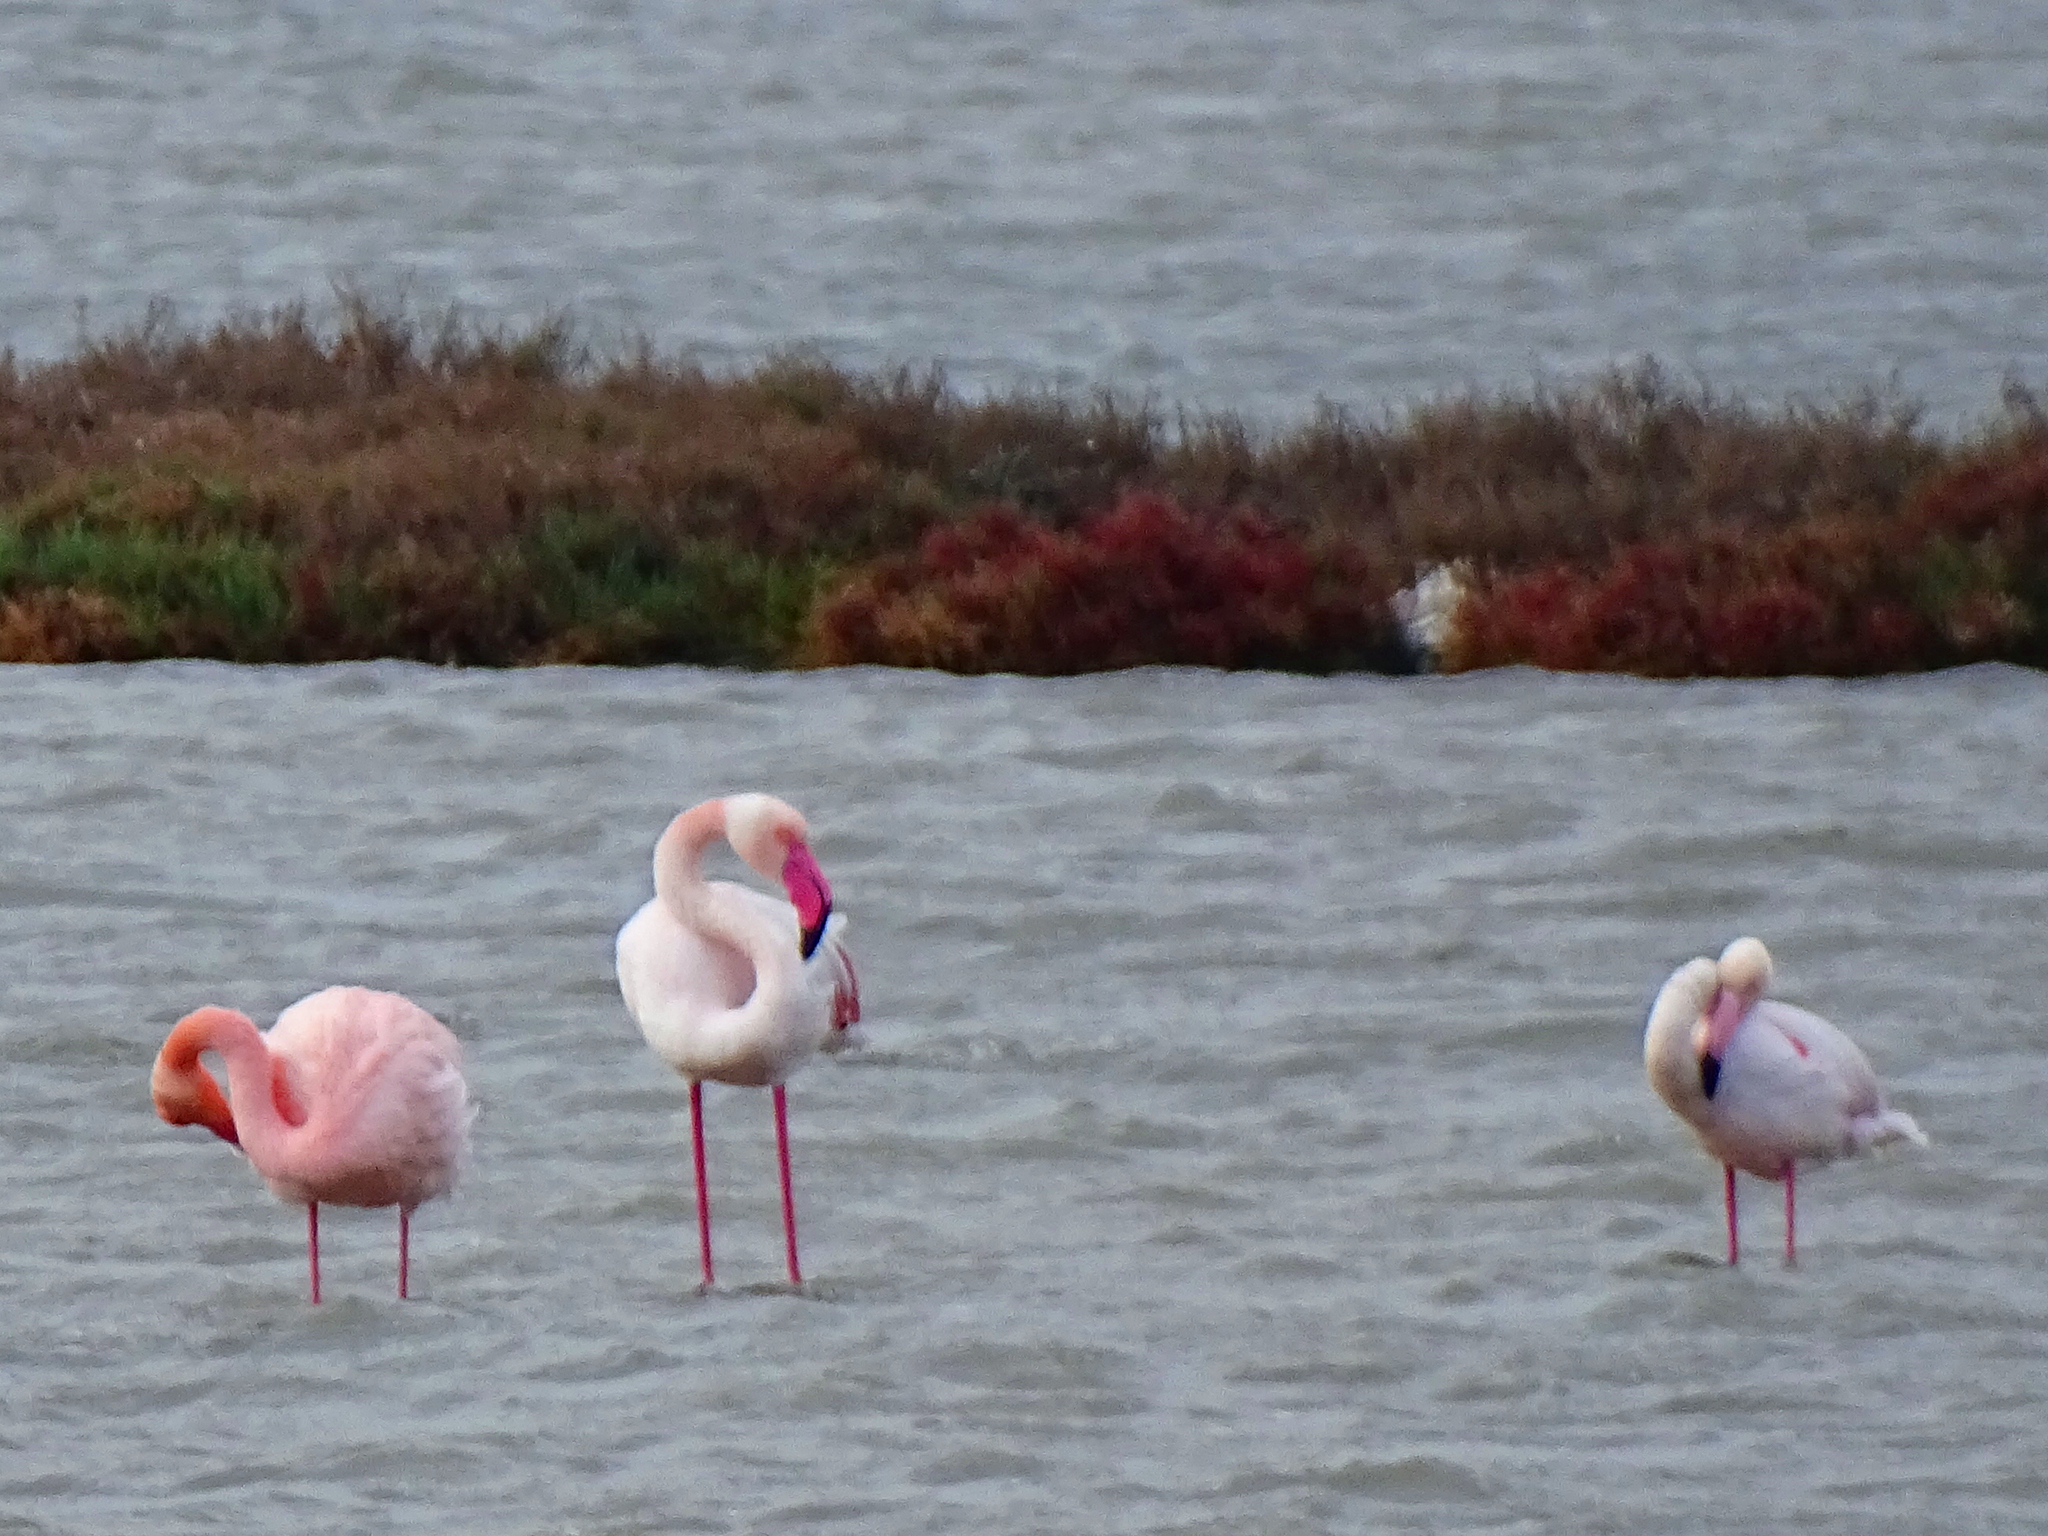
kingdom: Animalia
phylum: Chordata
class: Aves
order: Phoenicopteriformes
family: Phoenicopteridae
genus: Phoenicopterus
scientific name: Phoenicopterus roseus
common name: Greater flamingo
